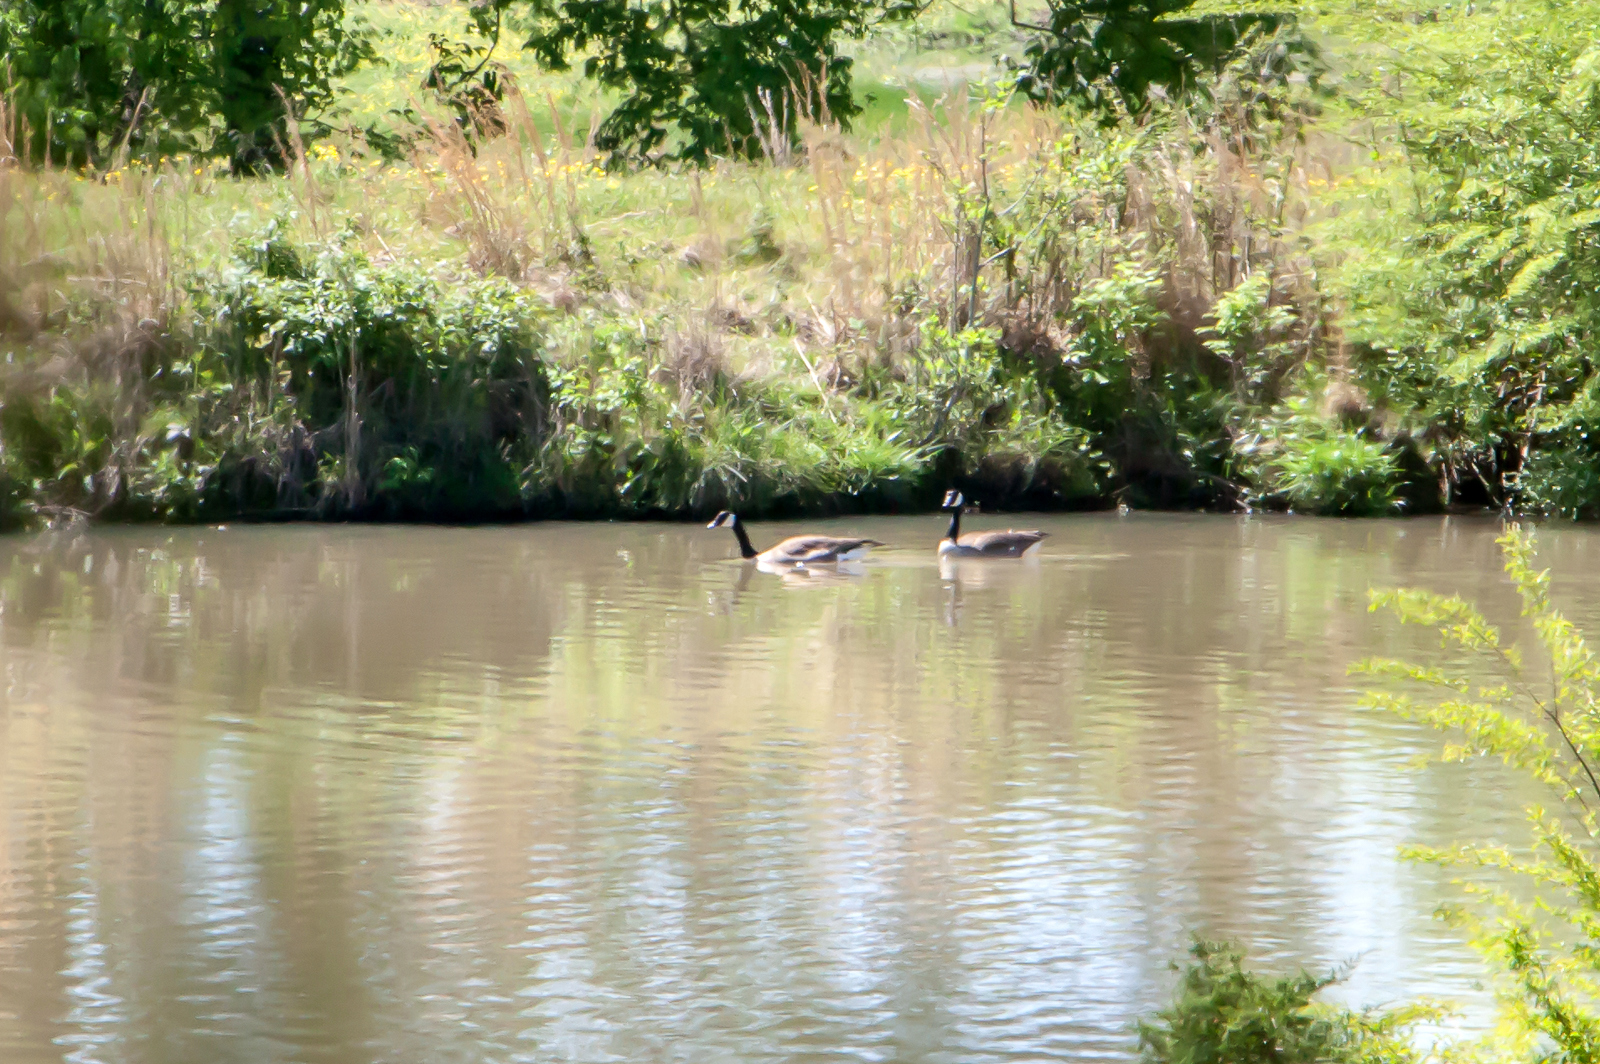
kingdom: Animalia
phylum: Chordata
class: Aves
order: Anseriformes
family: Anatidae
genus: Branta
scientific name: Branta canadensis
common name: Canada goose
